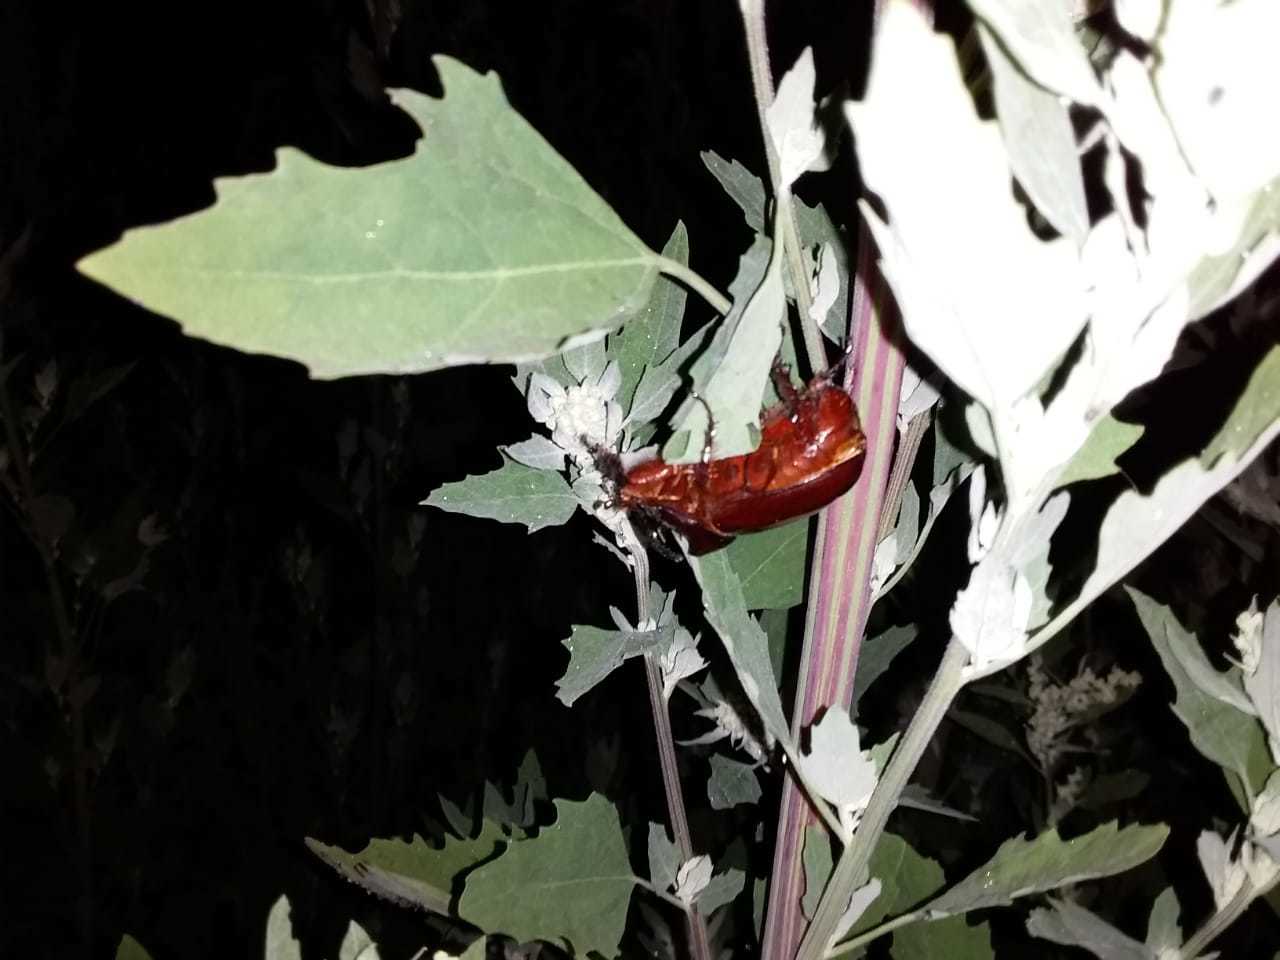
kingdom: Animalia
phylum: Arthropoda
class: Insecta
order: Coleoptera
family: Scarabaeidae
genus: Oryctes
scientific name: Oryctes nasicornis
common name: European rhinoceros beetle
